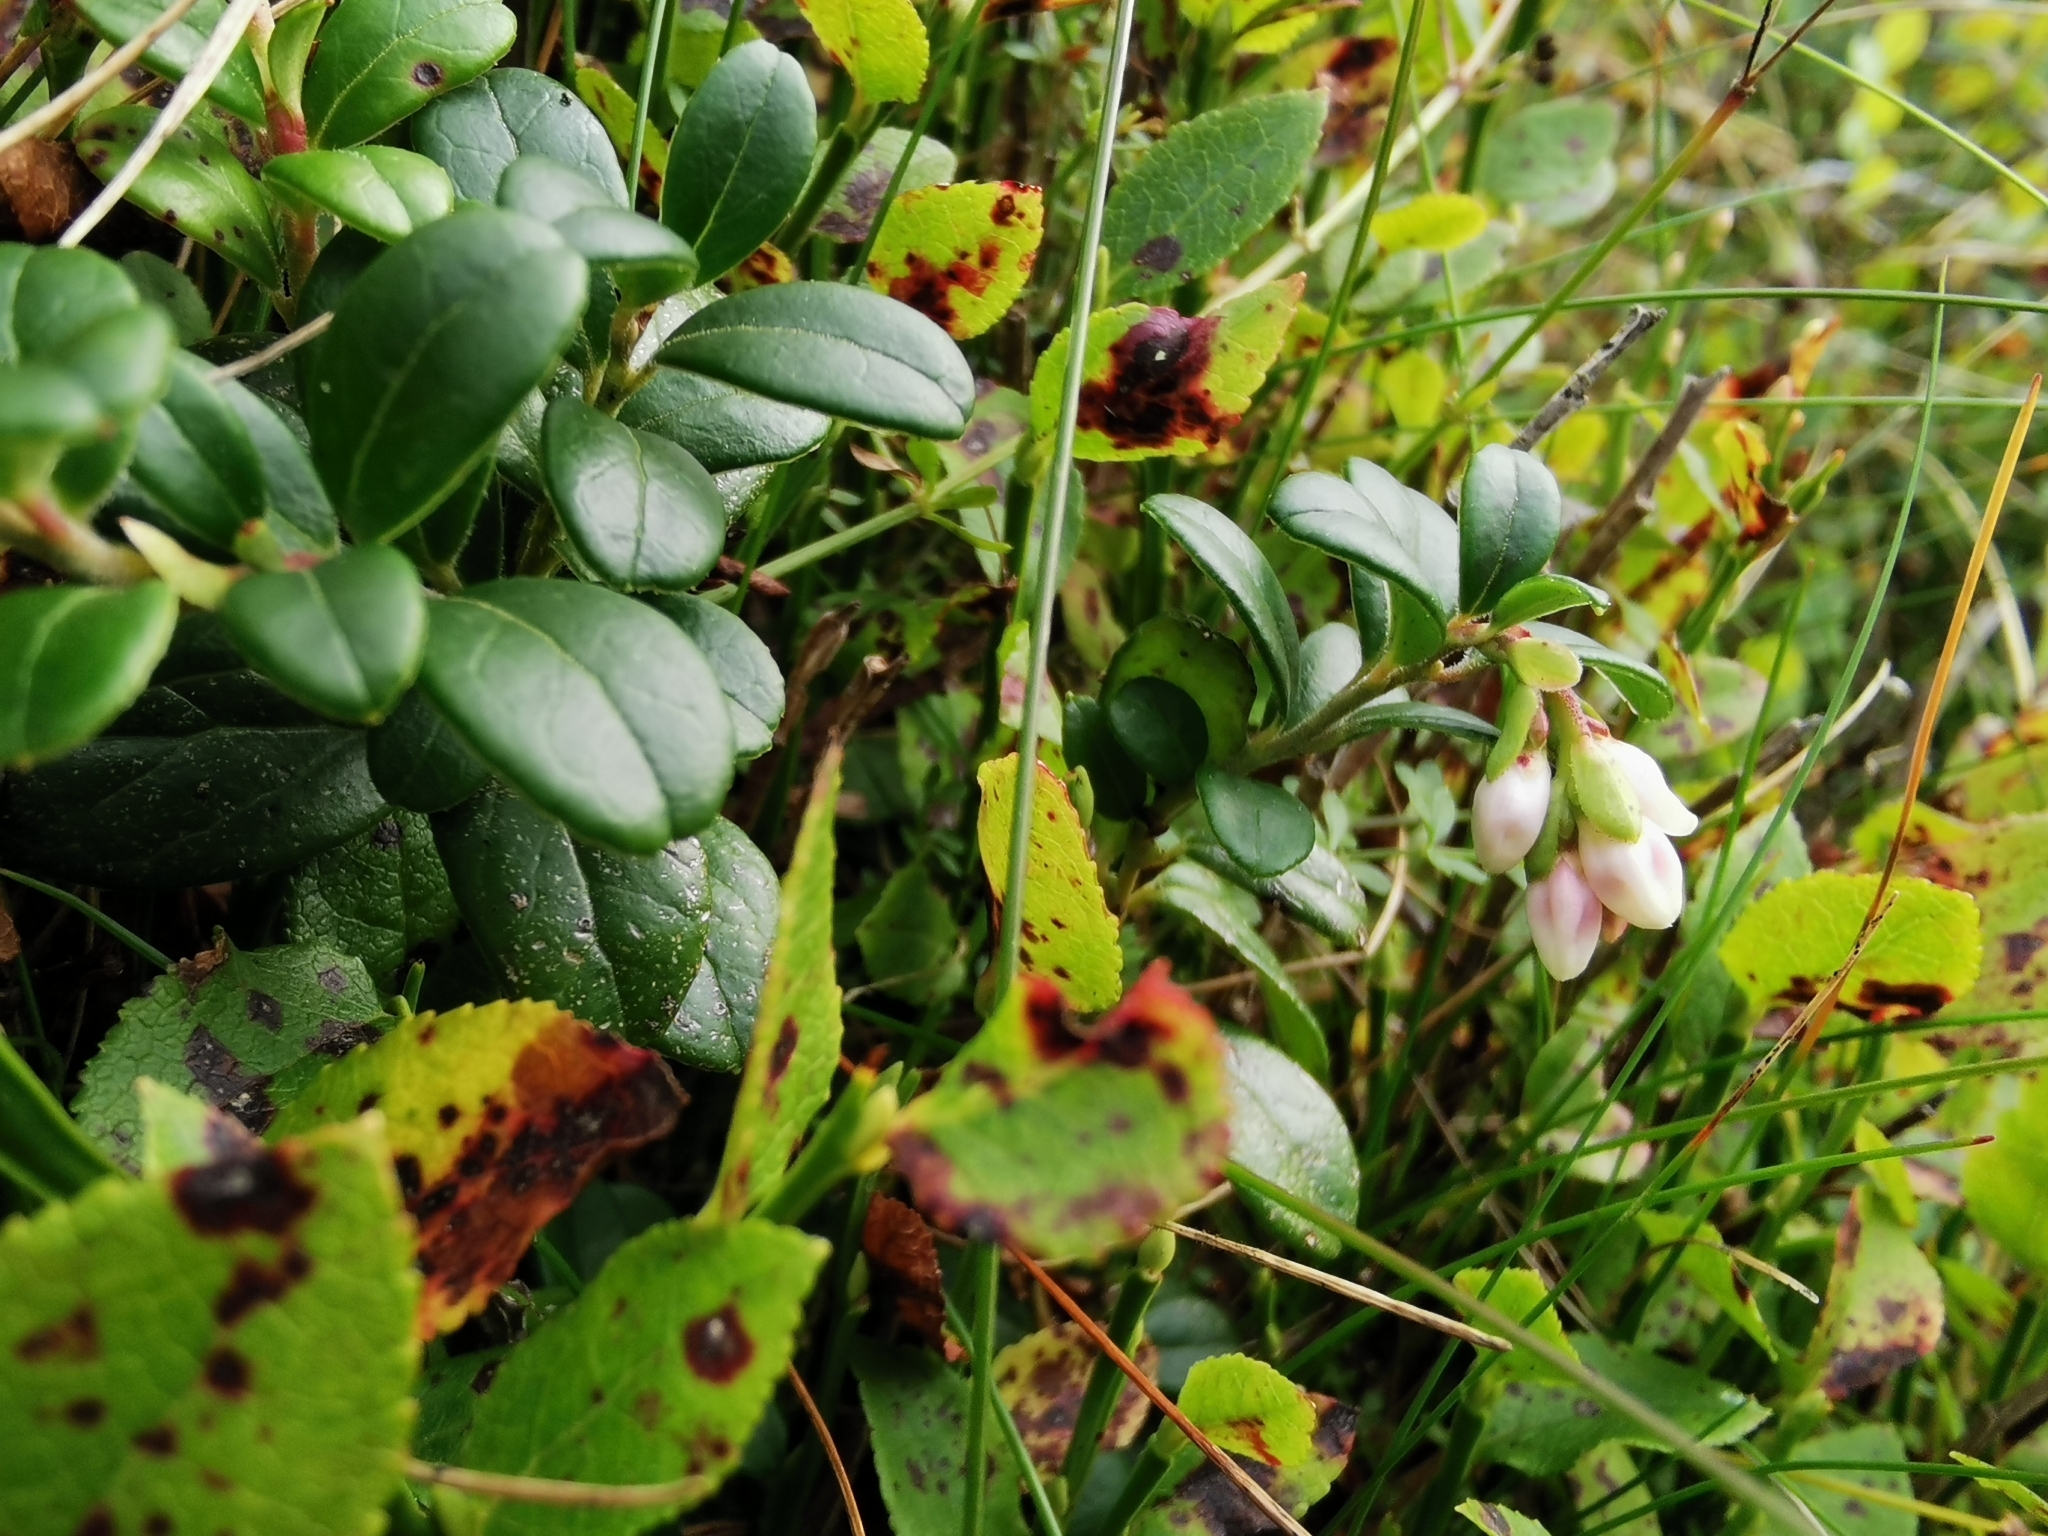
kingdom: Plantae
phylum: Tracheophyta
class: Magnoliopsida
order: Ericales
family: Ericaceae
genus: Vaccinium
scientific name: Vaccinium vitis-idaea
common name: Cowberry
